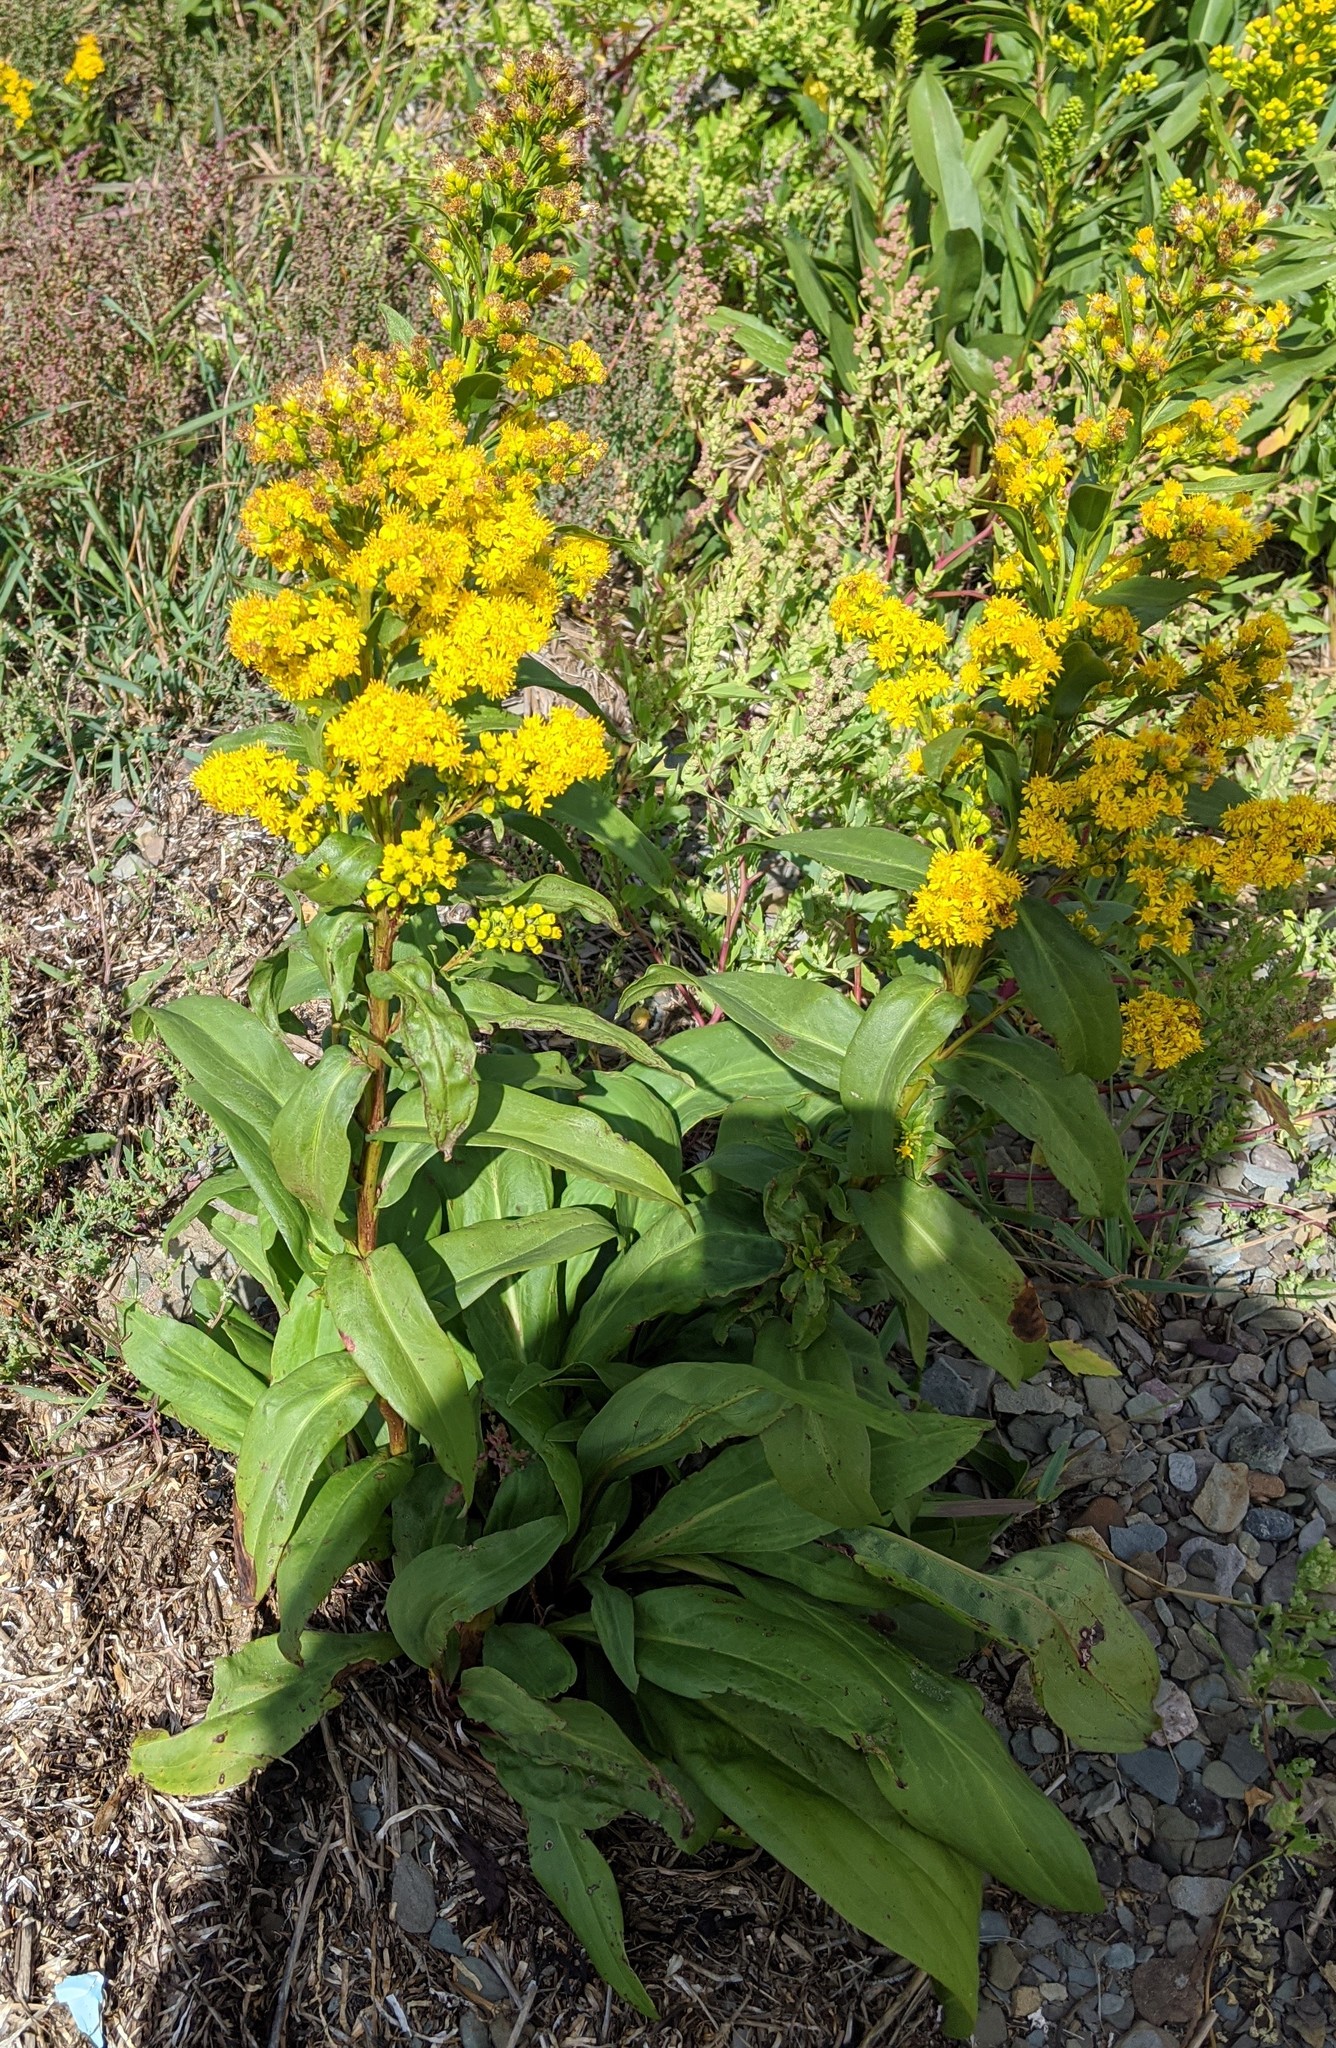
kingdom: Plantae
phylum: Tracheophyta
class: Magnoliopsida
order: Asterales
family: Asteraceae
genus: Solidago
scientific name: Solidago sempervirens
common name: Salt-marsh goldenrod
